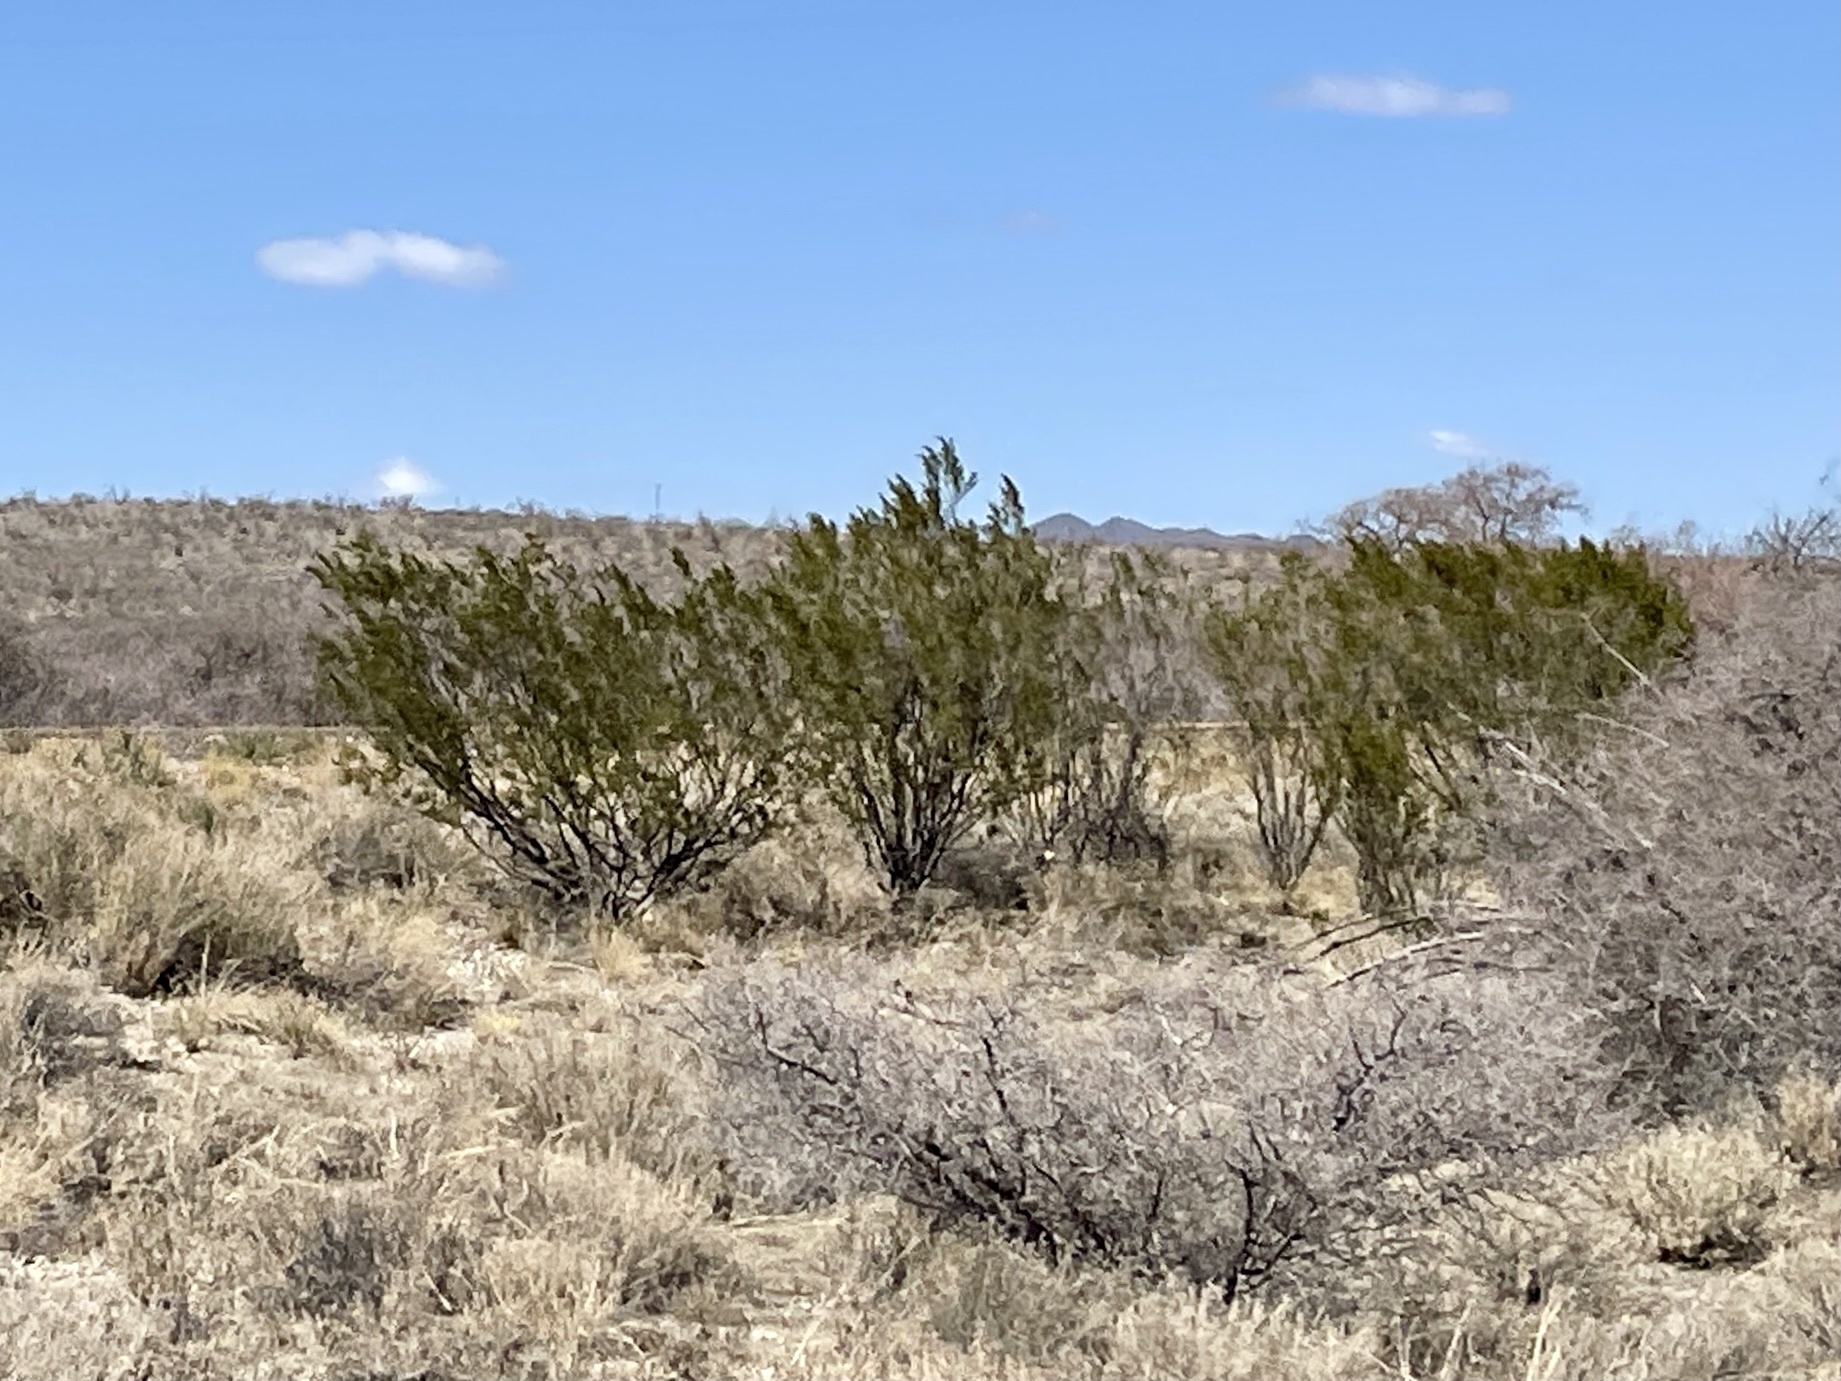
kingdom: Plantae
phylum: Tracheophyta
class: Magnoliopsida
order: Zygophyllales
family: Zygophyllaceae
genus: Larrea
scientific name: Larrea tridentata
